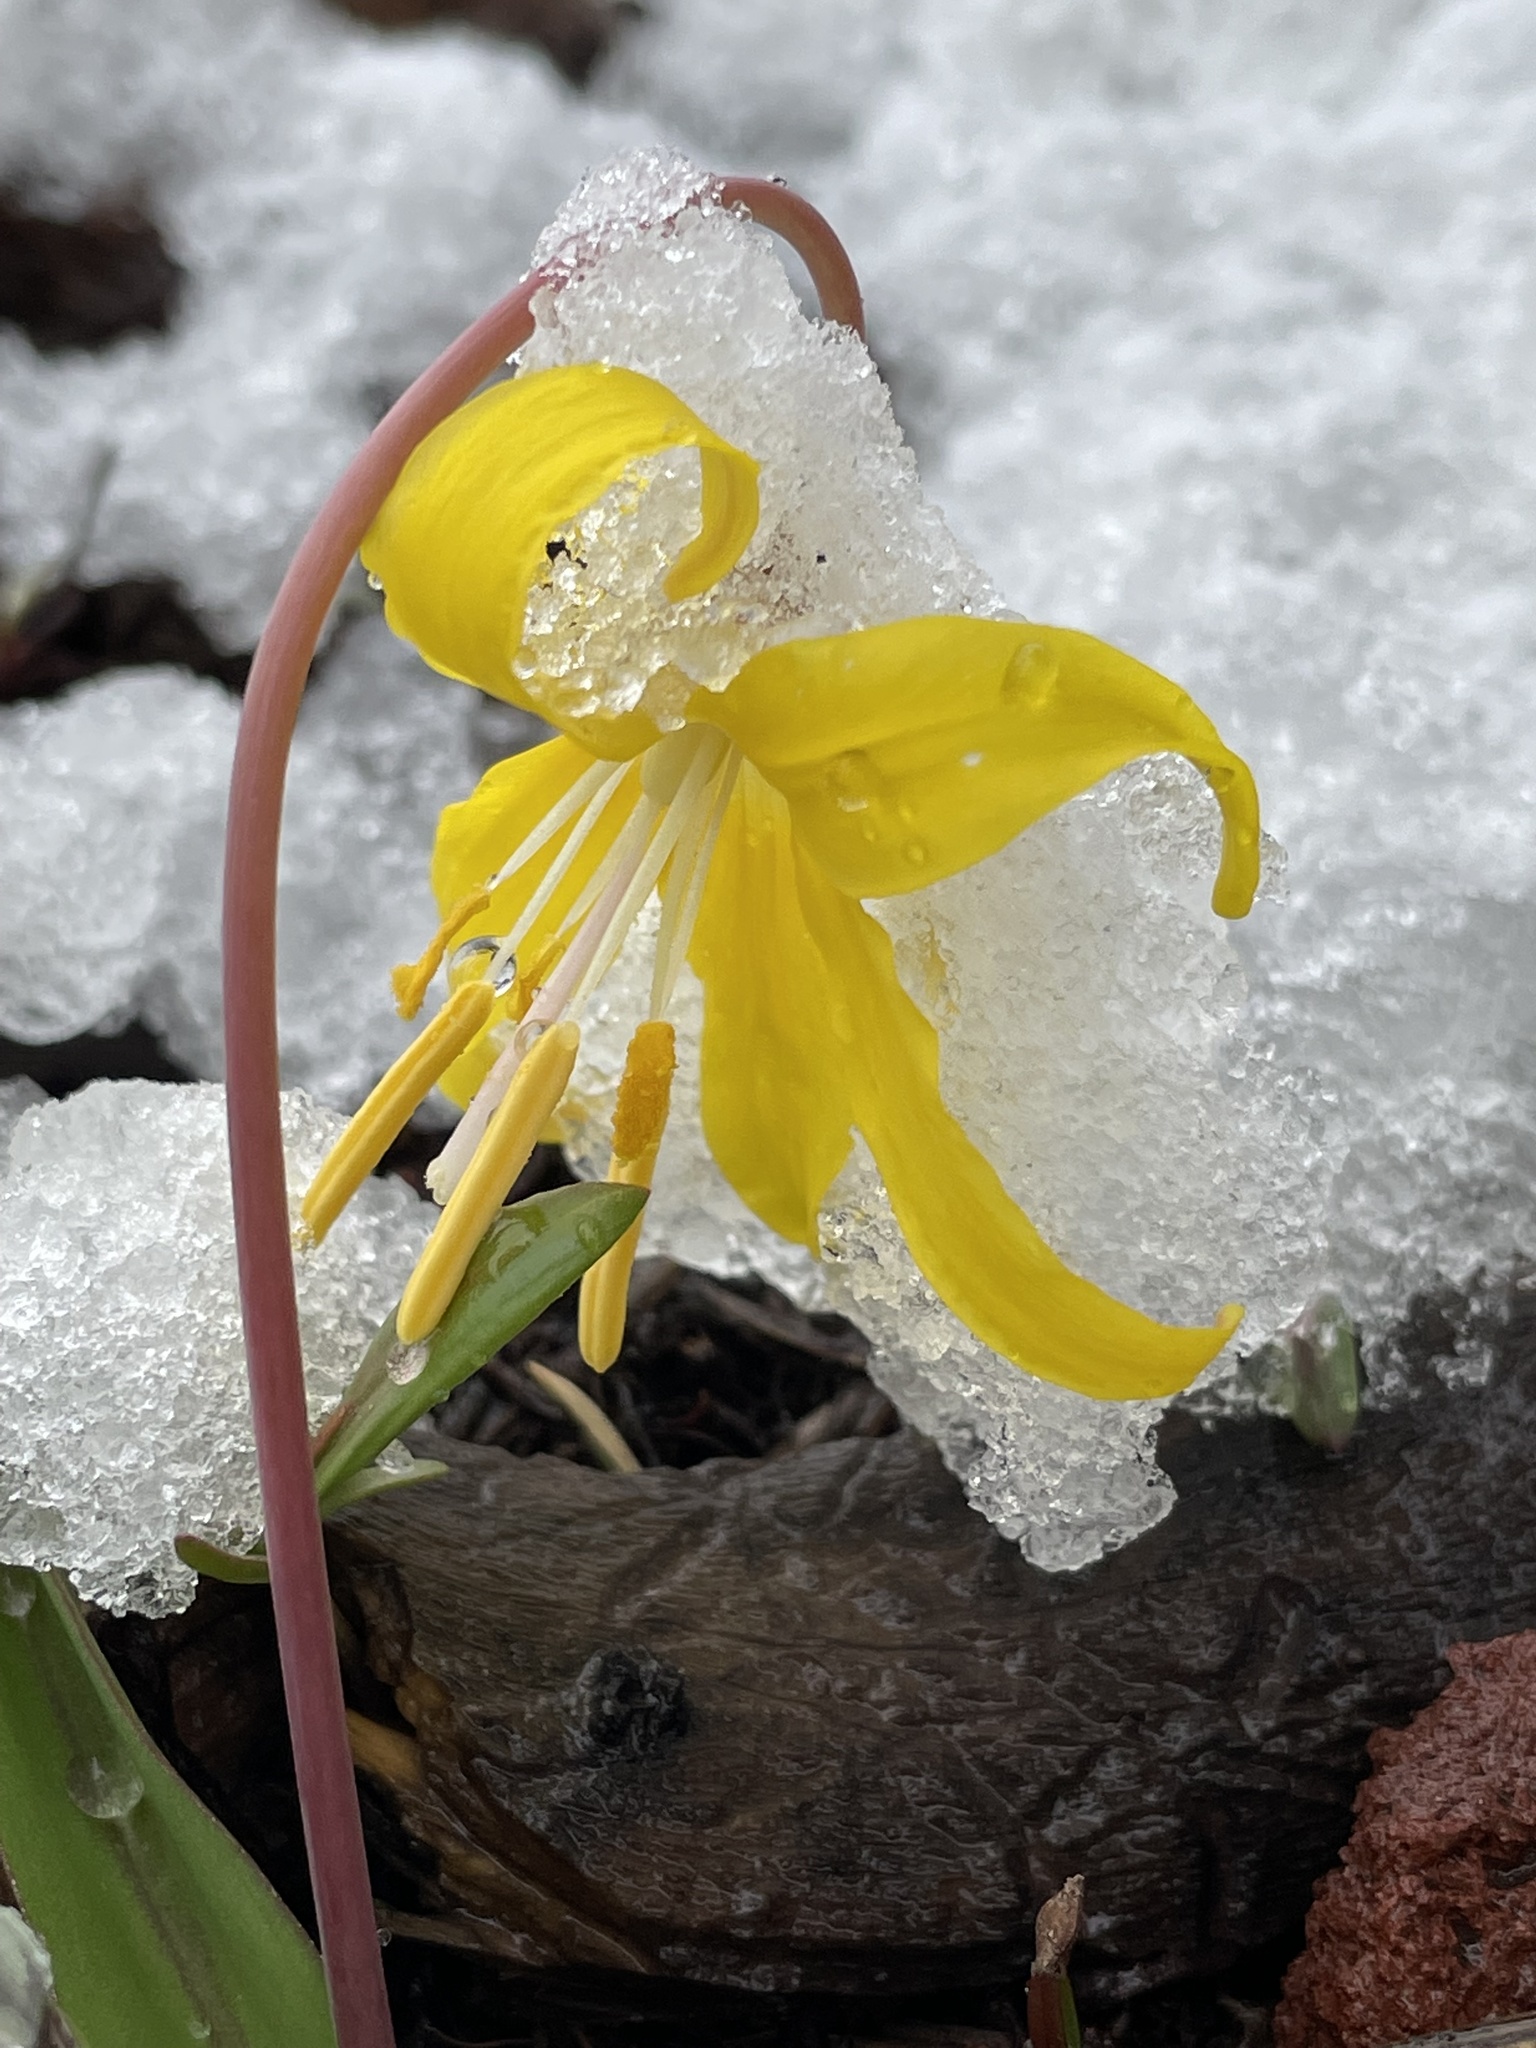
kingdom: Plantae
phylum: Tracheophyta
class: Liliopsida
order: Liliales
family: Liliaceae
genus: Erythronium
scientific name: Erythronium grandiflorum
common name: Avalanche-lily
